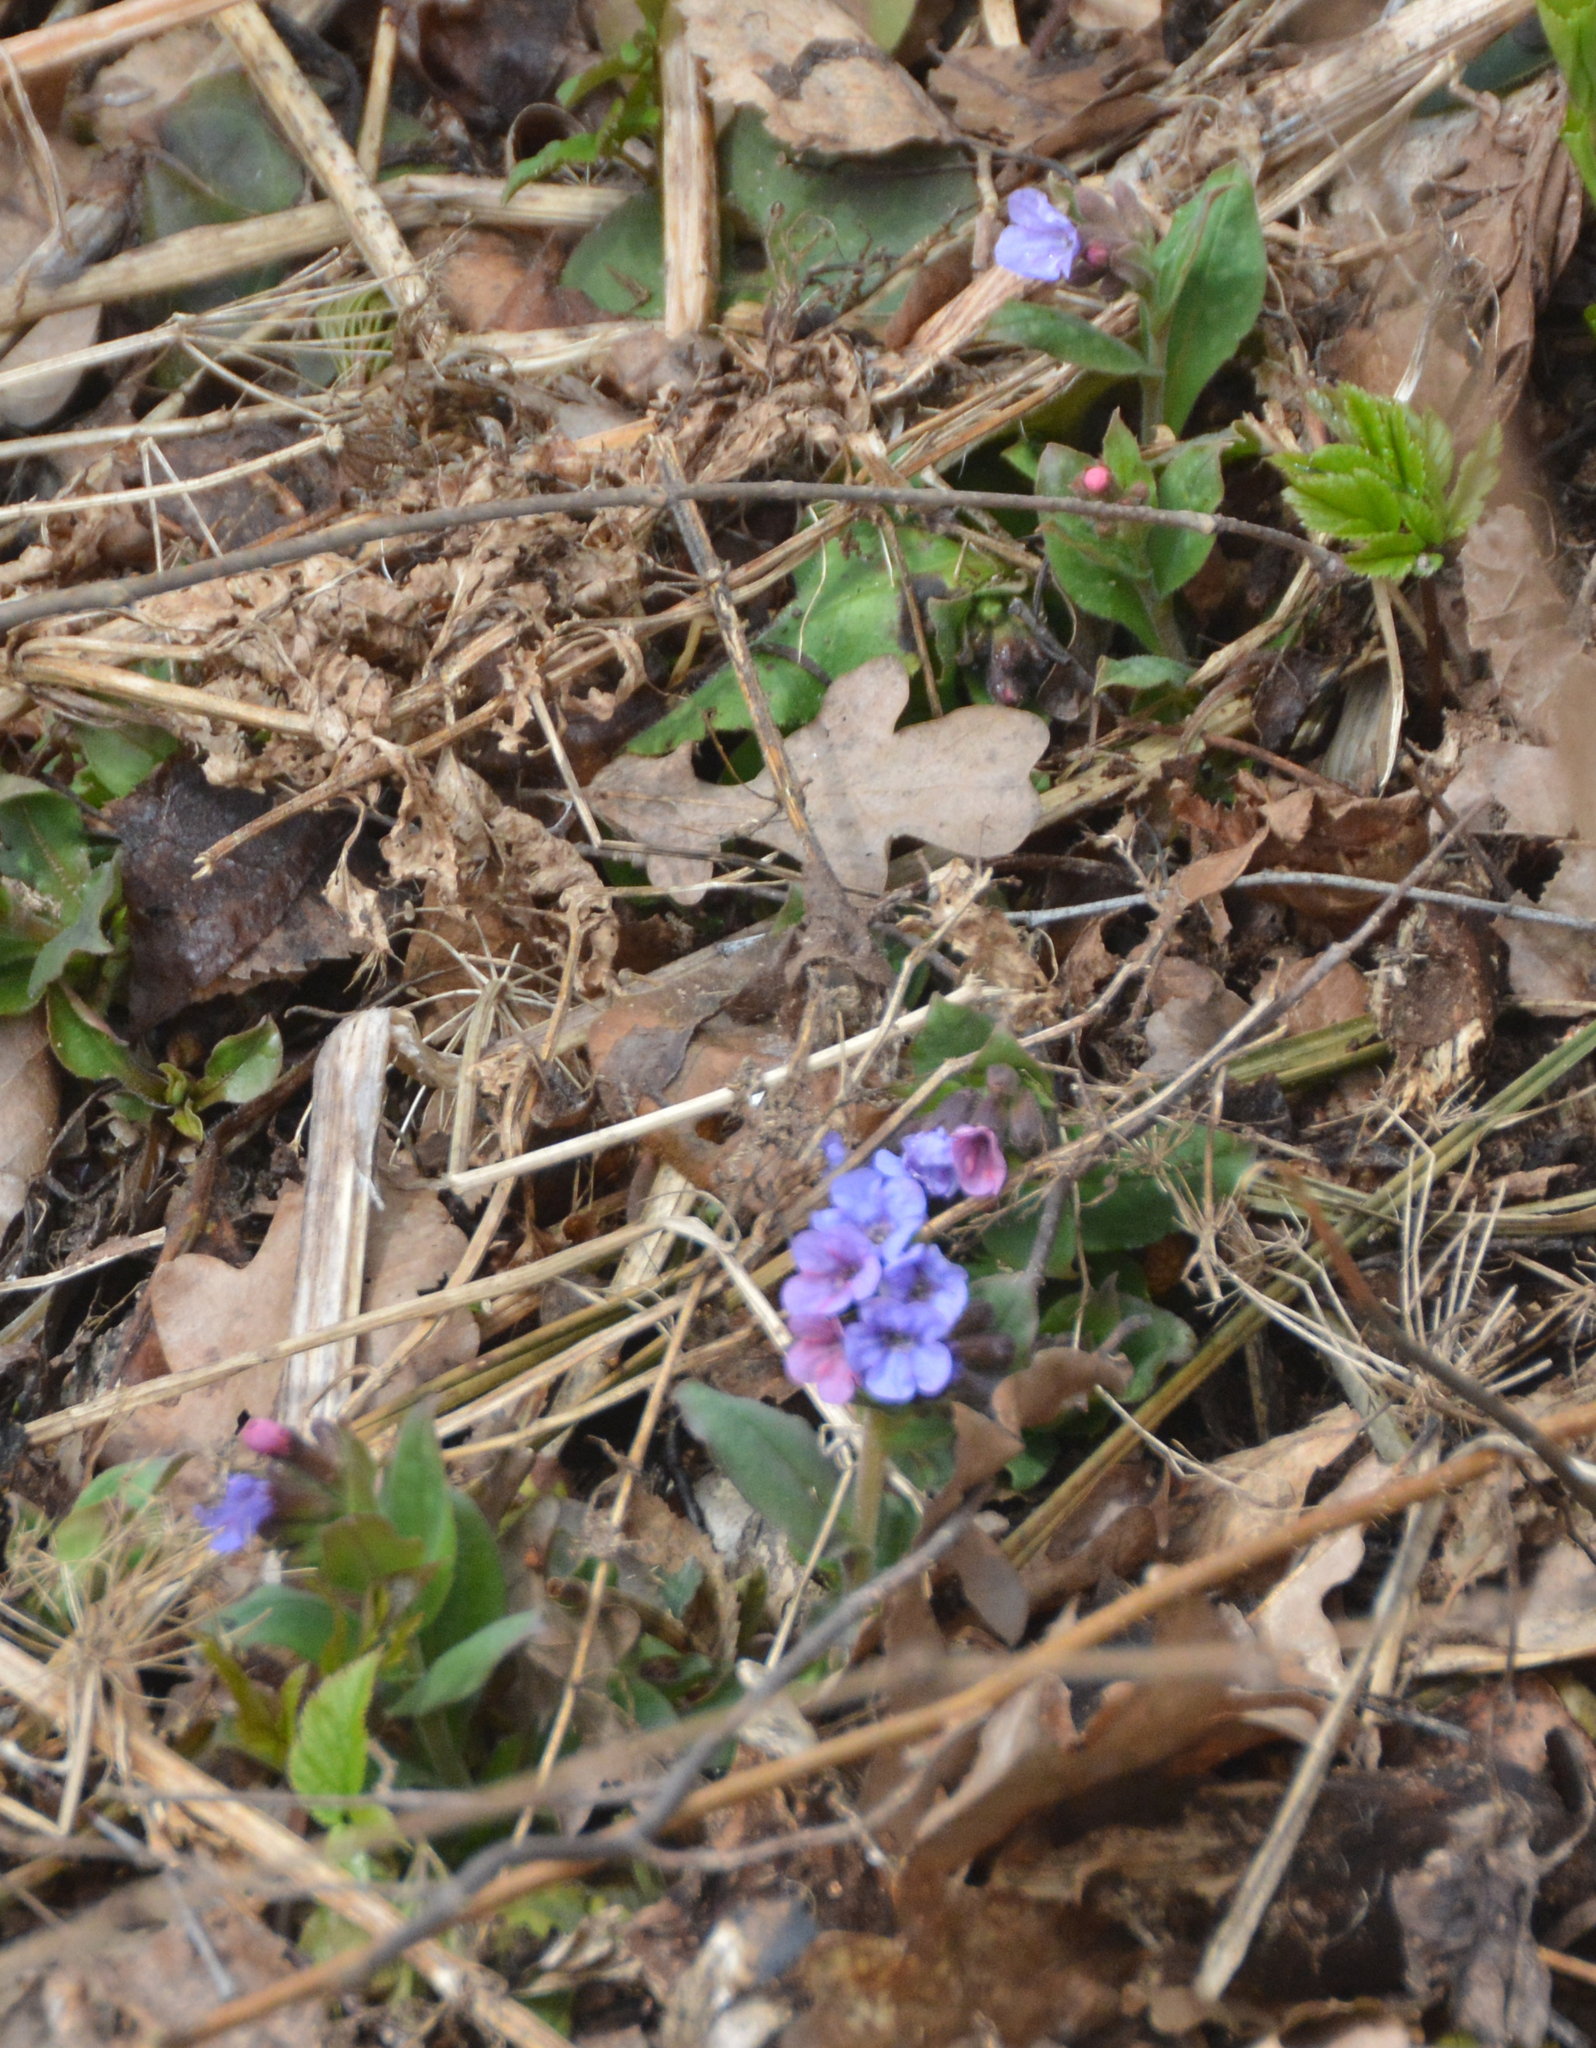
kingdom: Plantae
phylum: Tracheophyta
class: Magnoliopsida
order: Boraginales
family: Boraginaceae
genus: Pulmonaria
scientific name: Pulmonaria obscura
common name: Suffolk lungwort
